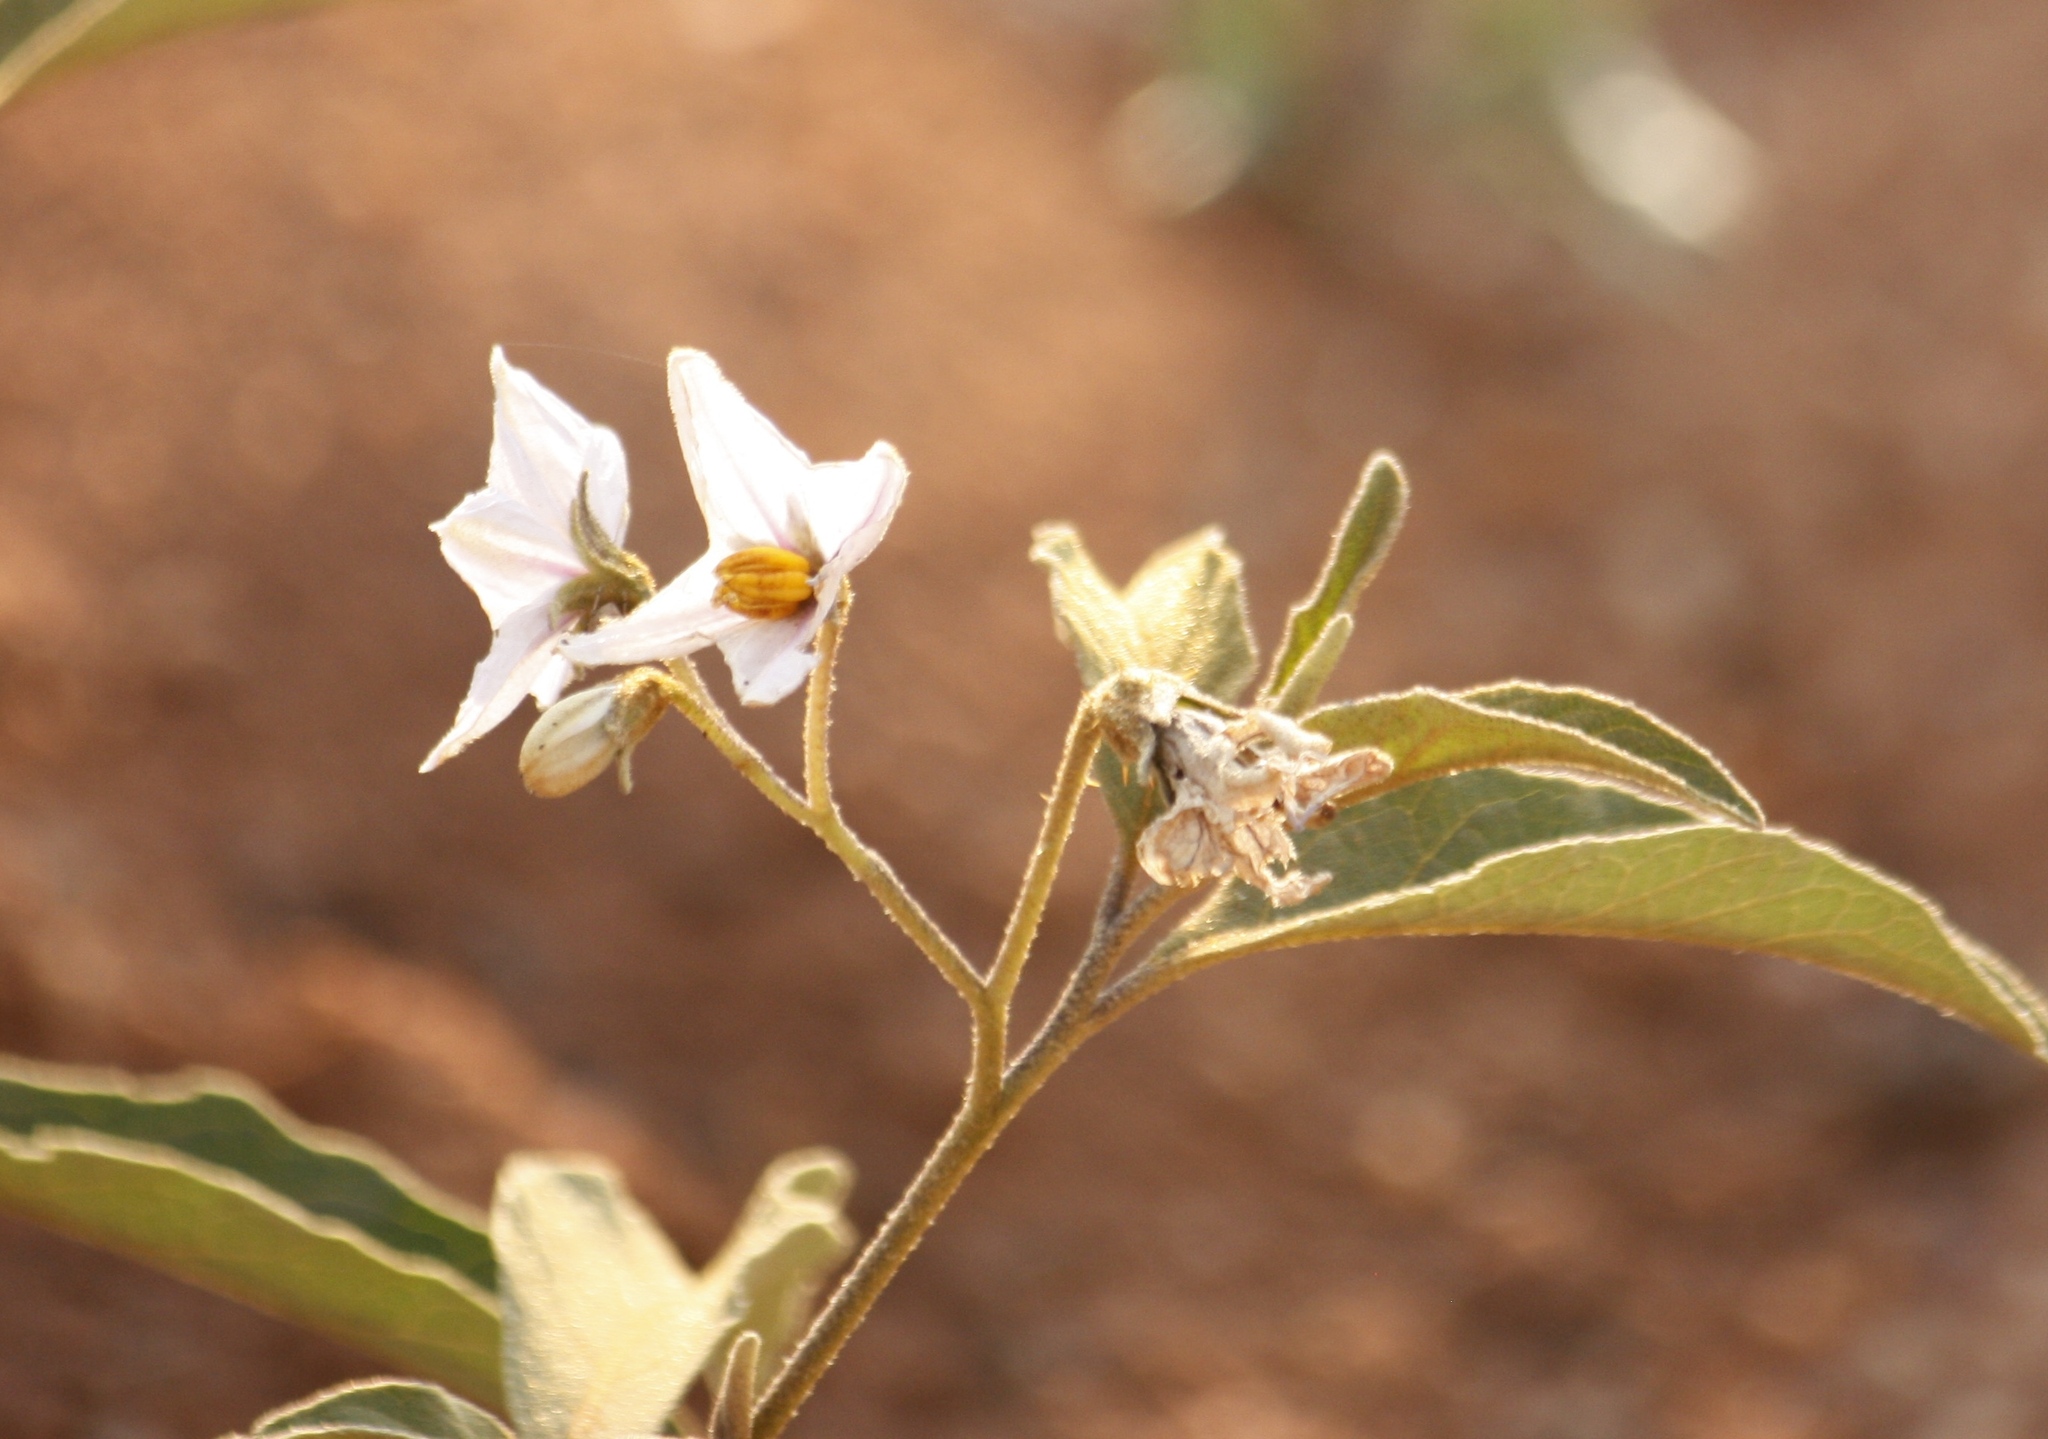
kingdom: Plantae
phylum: Tracheophyta
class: Magnoliopsida
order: Solanales
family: Solanaceae
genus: Solanum
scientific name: Solanum campylacanthum
